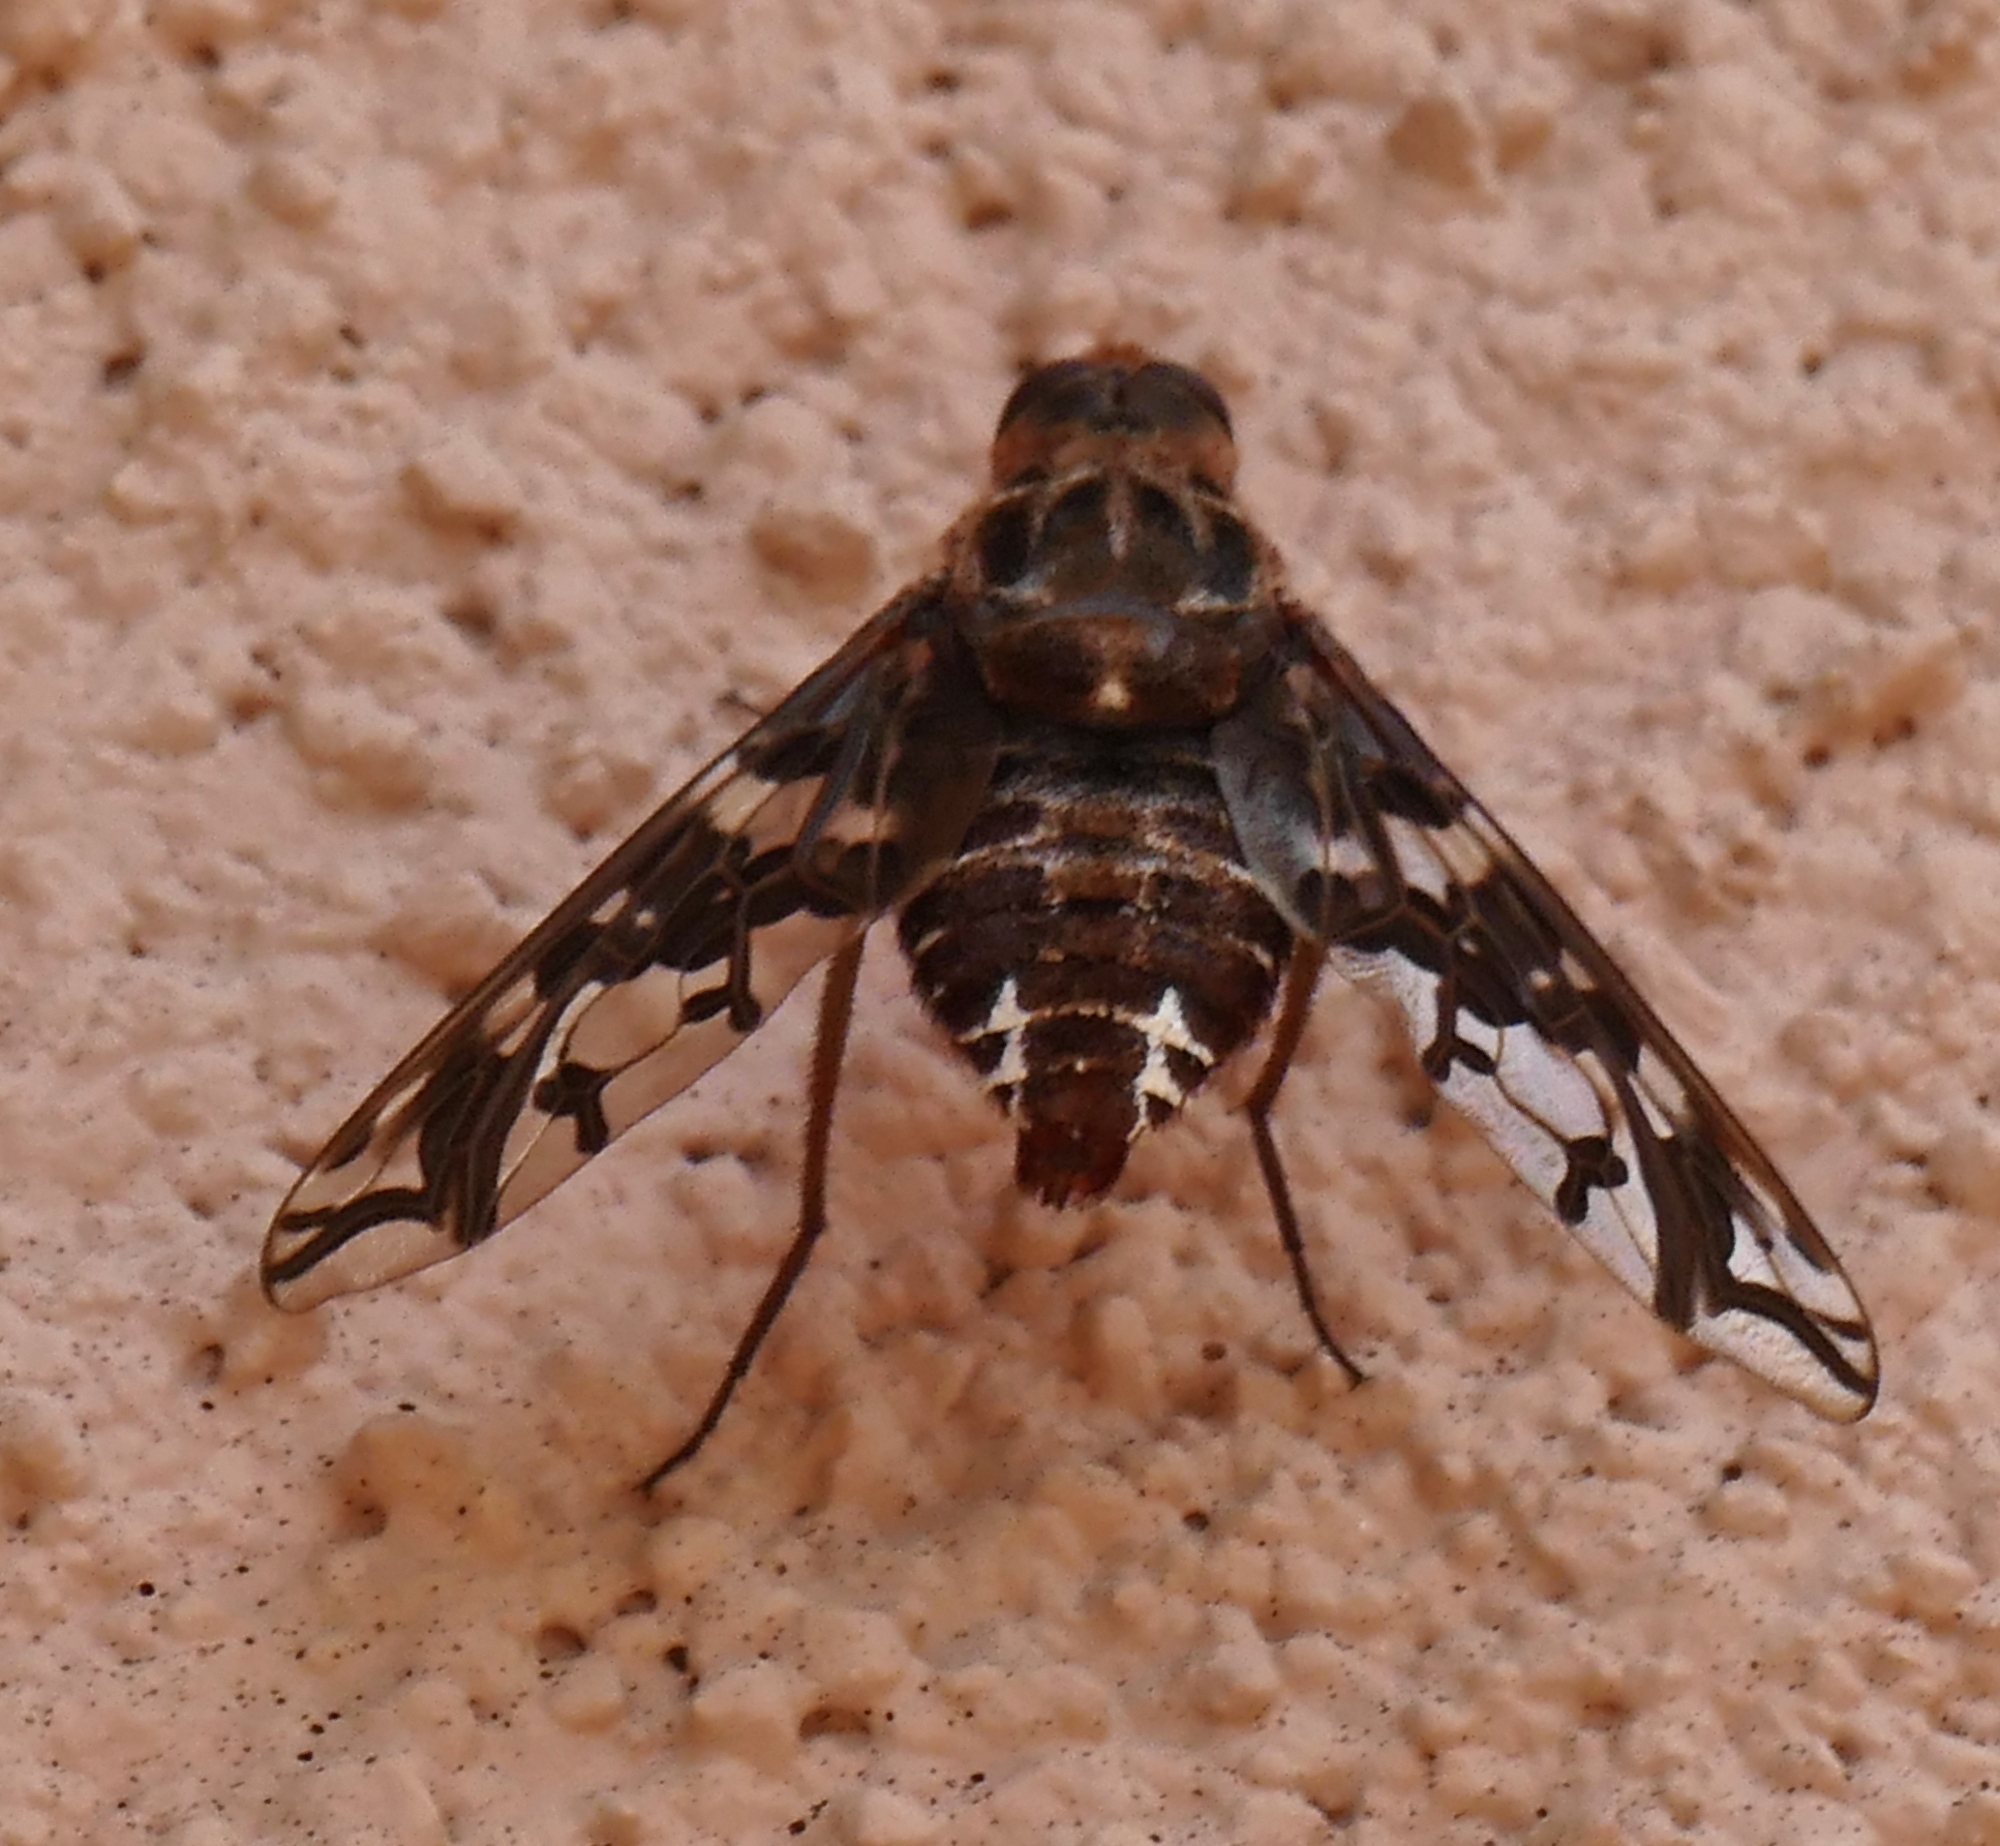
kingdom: Animalia
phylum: Arthropoda
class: Insecta
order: Diptera
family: Bombyliidae
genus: Xenox
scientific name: Xenox habrosus
